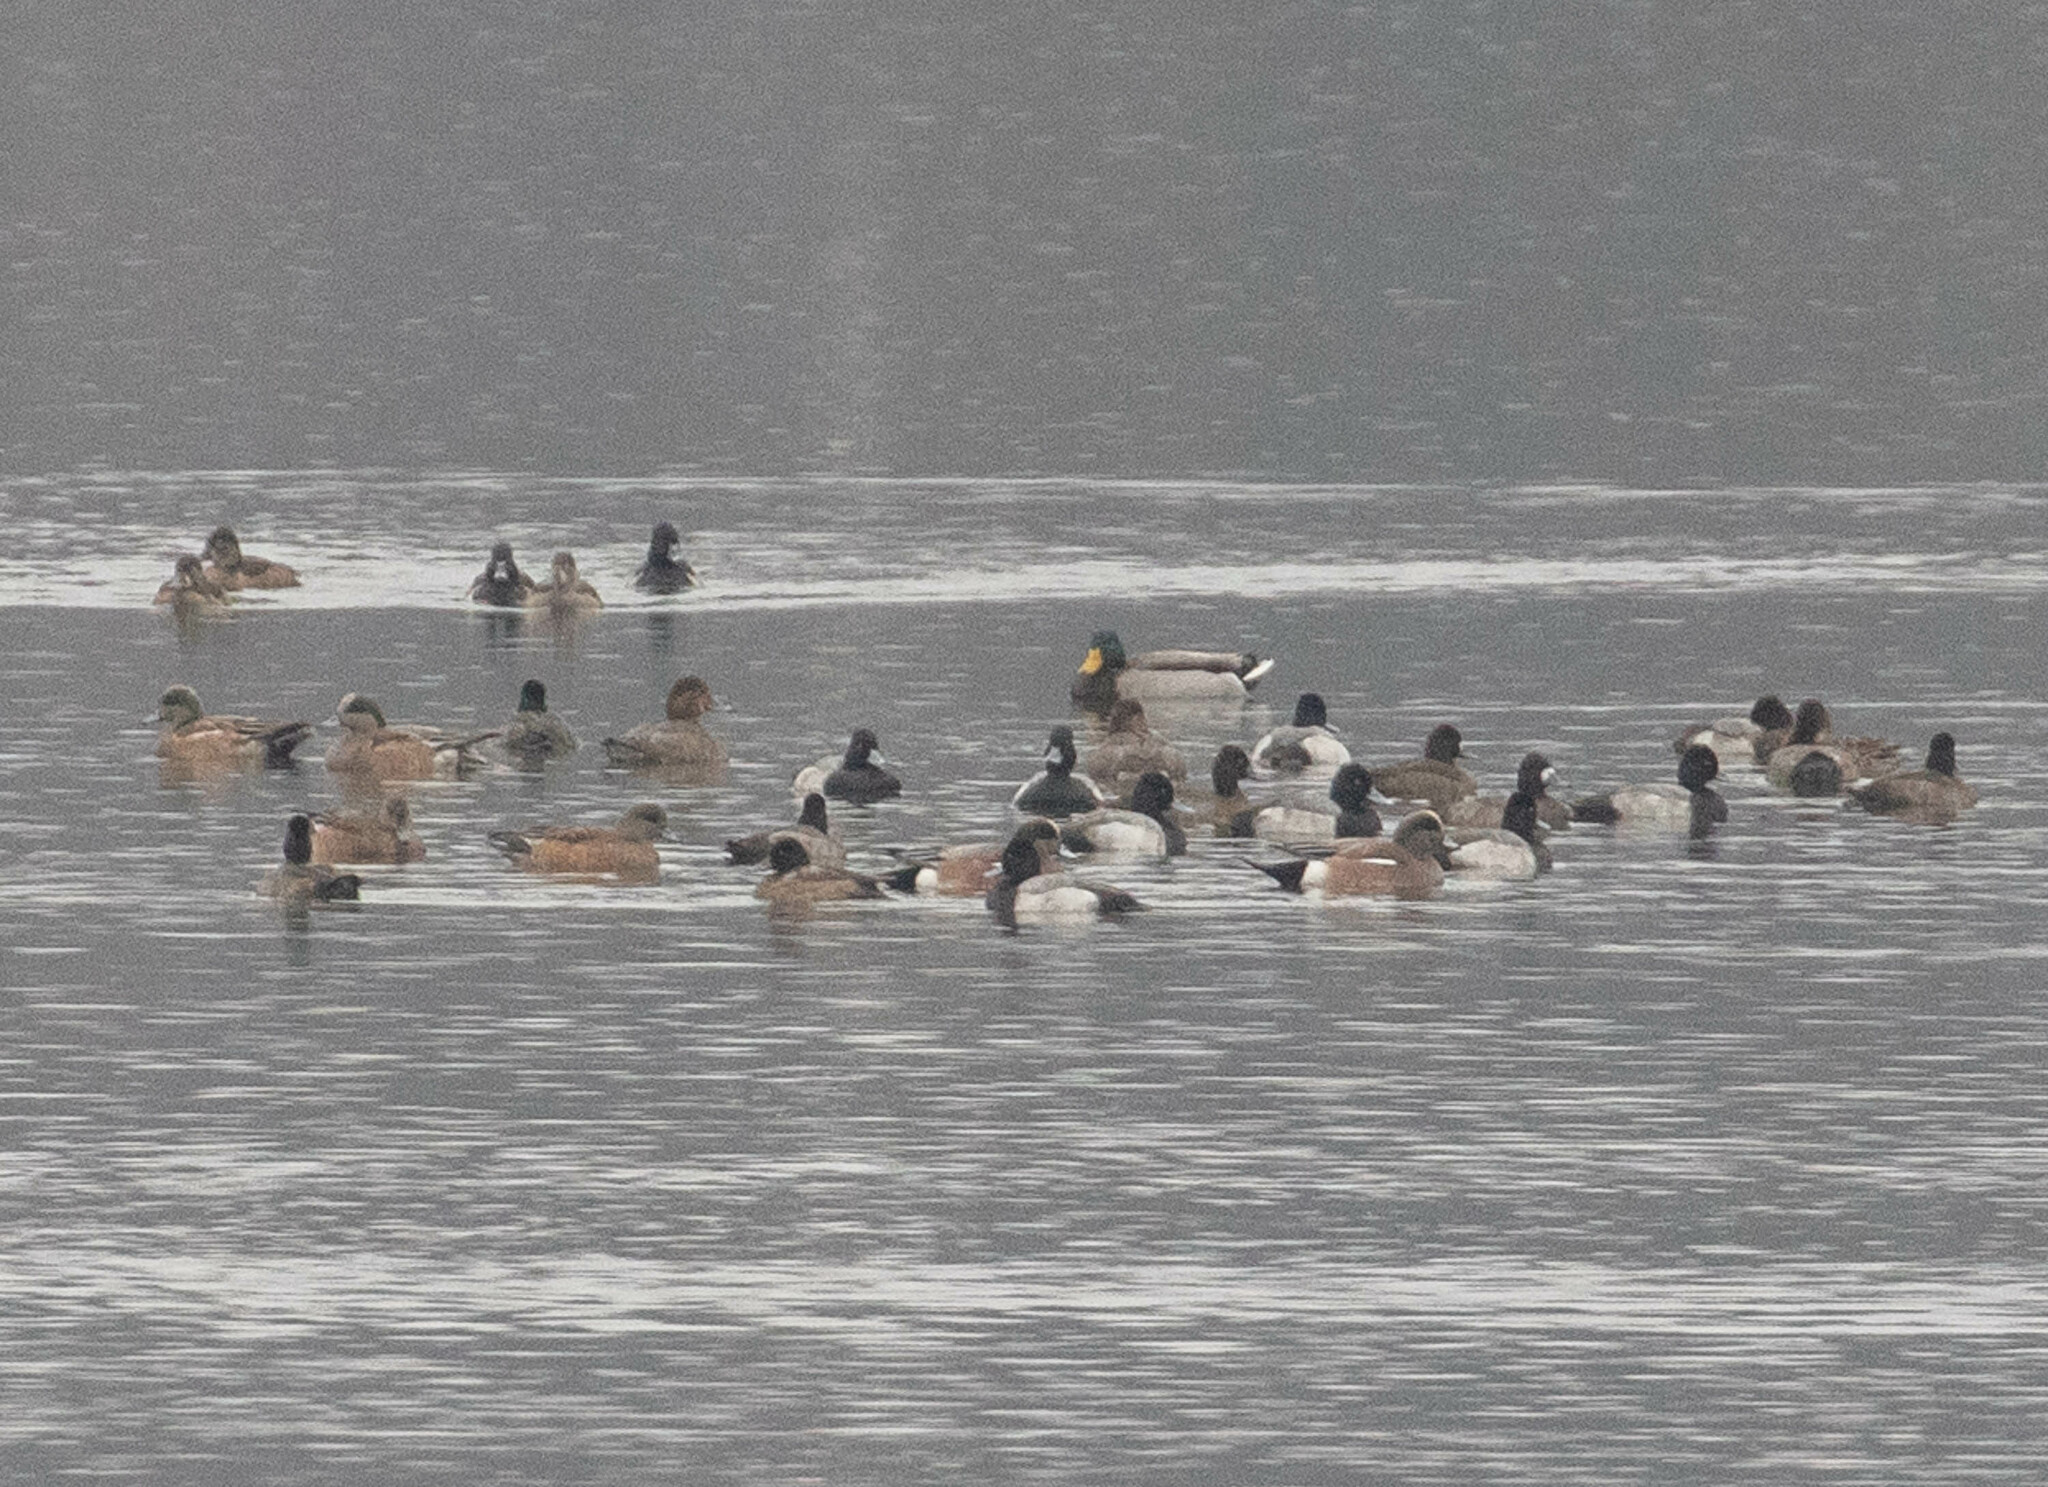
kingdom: Animalia
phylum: Chordata
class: Aves
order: Anseriformes
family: Anatidae
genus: Aythya
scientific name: Aythya collaris
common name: Ring-necked duck
